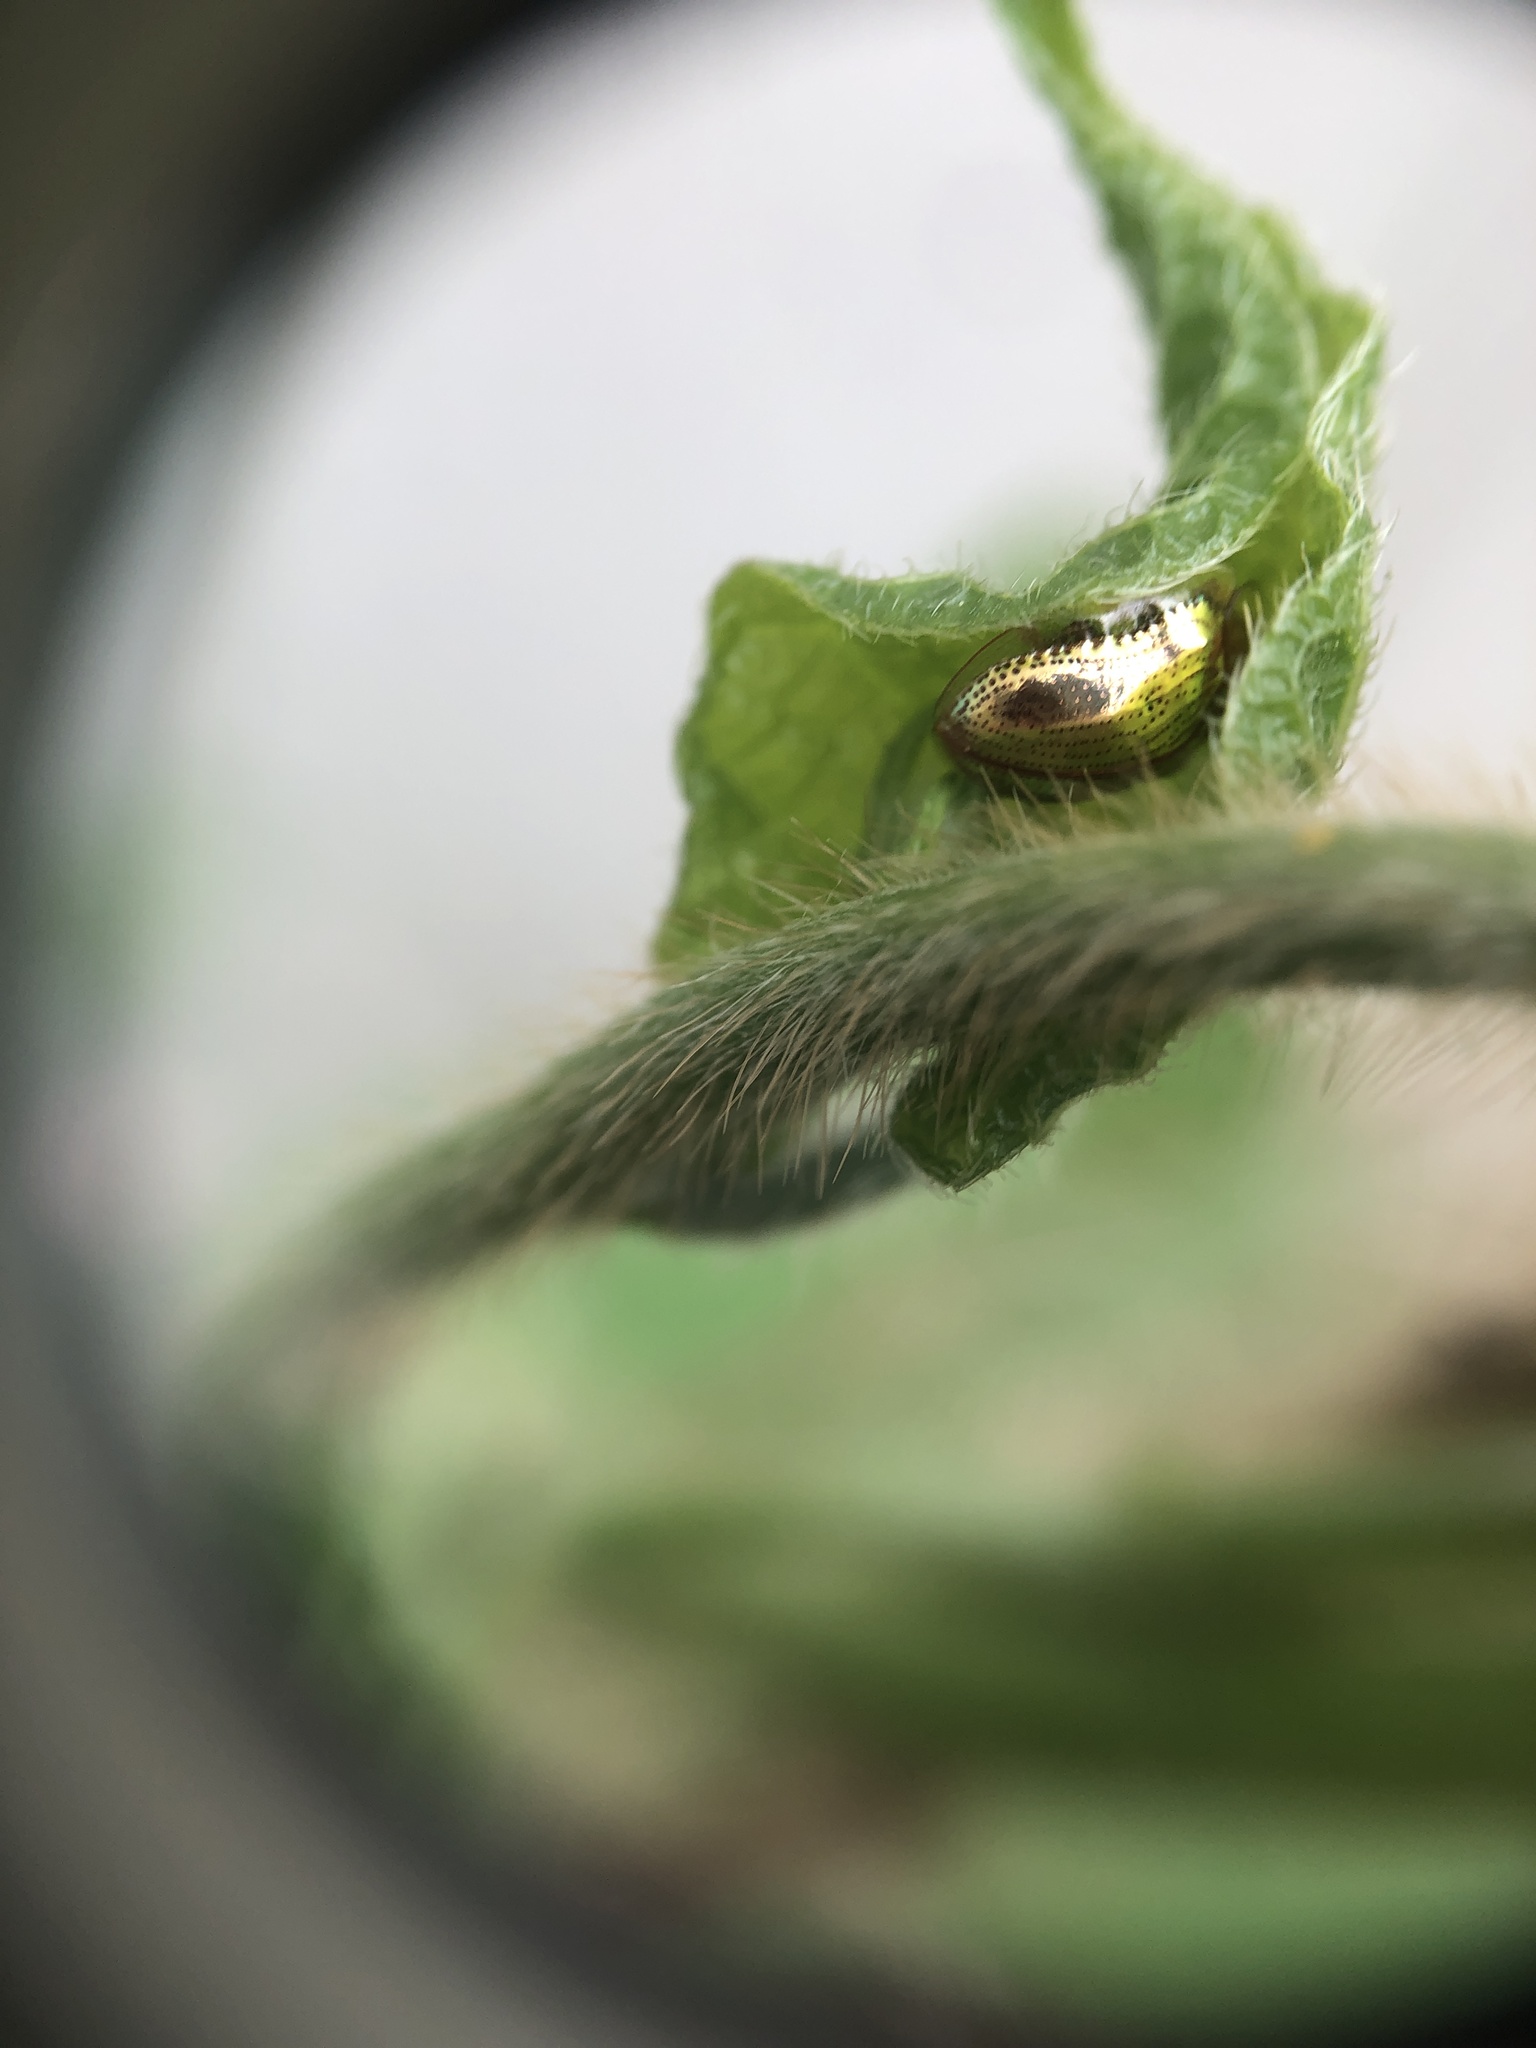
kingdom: Animalia
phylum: Arthropoda
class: Insecta
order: Coleoptera
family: Chrysomelidae
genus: Charidotella
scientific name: Charidotella sexpunctata
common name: Golden tortoise beetle
